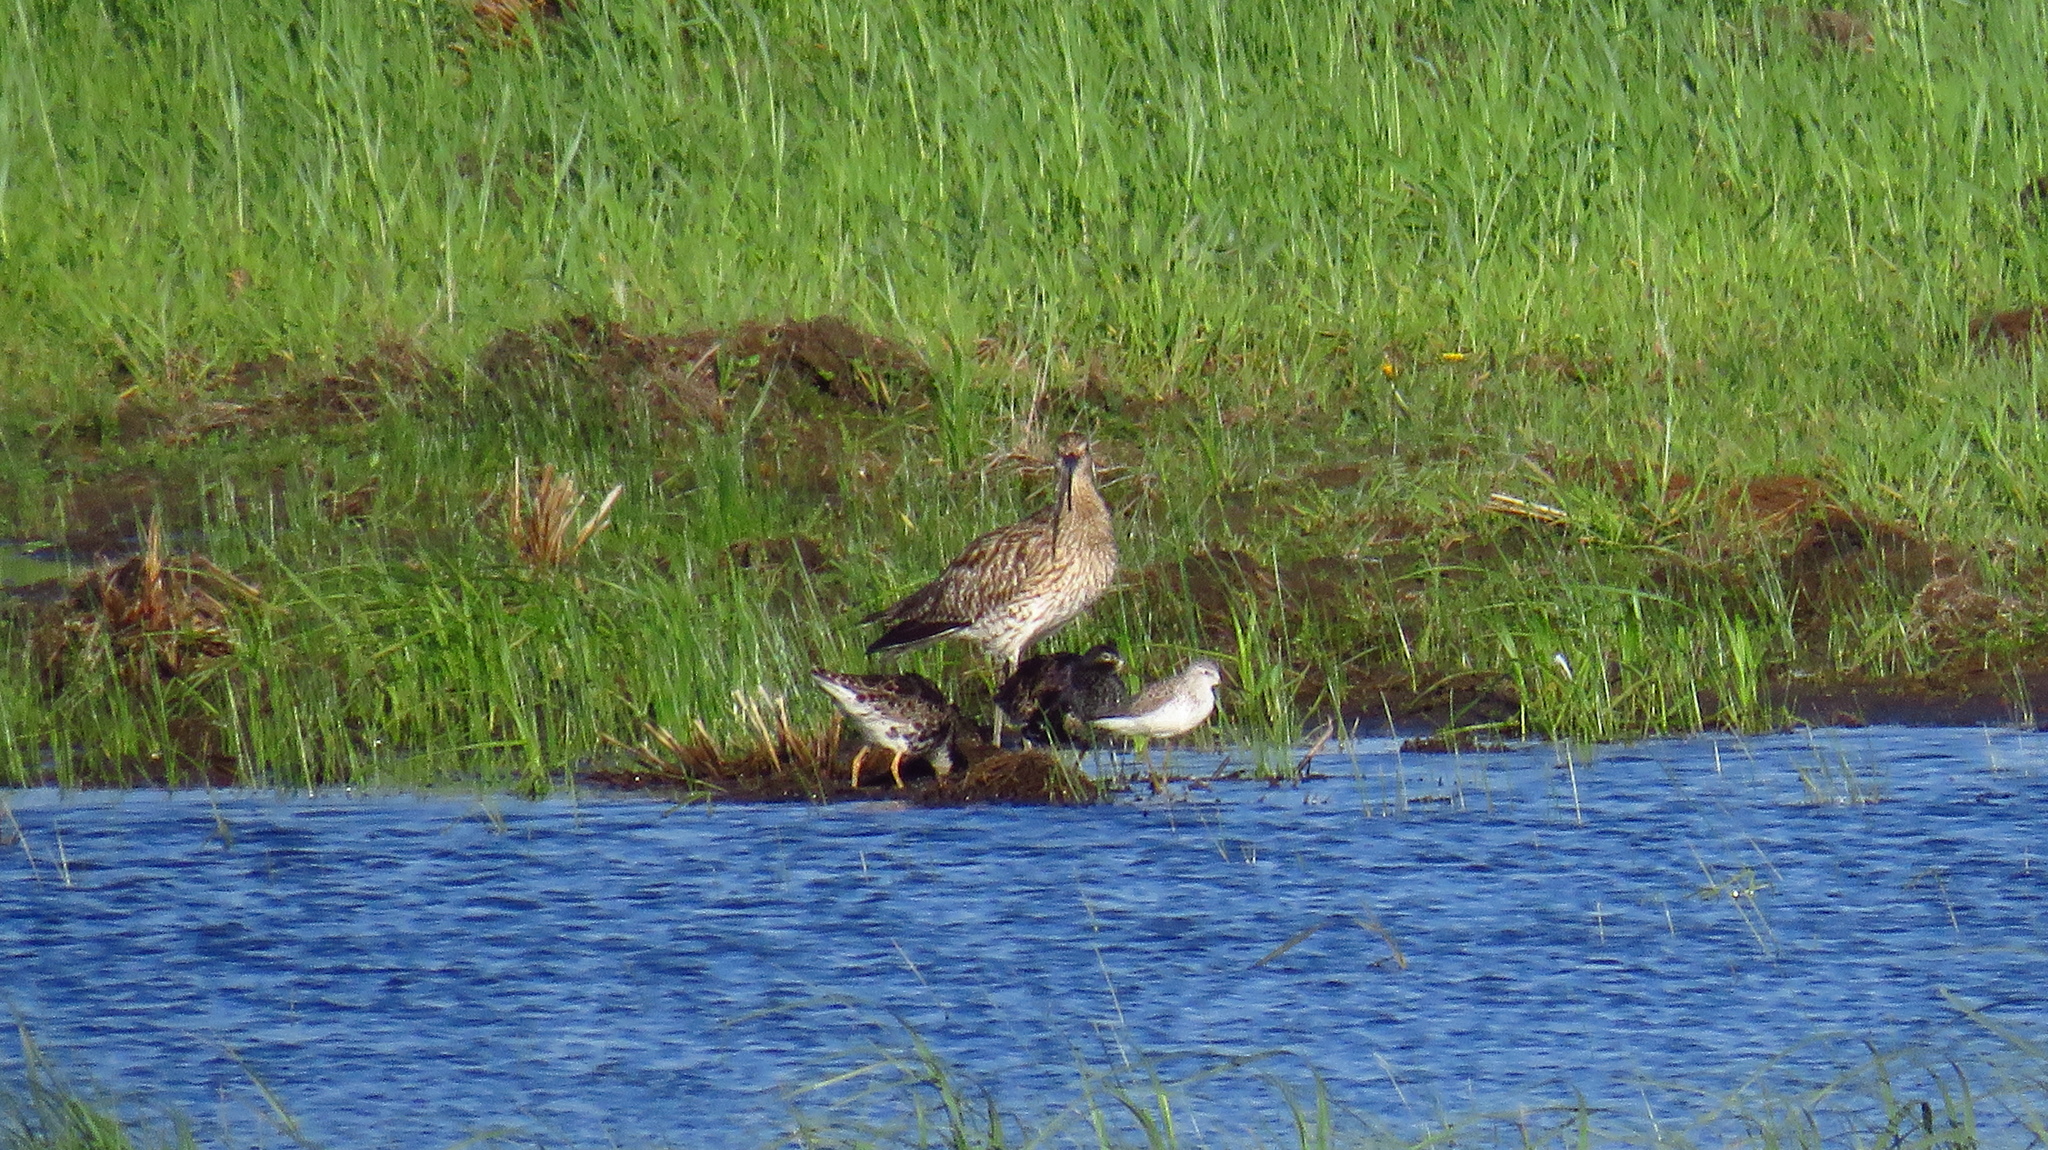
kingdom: Animalia
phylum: Chordata
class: Aves
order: Charadriiformes
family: Scolopacidae
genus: Tringa
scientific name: Tringa stagnatilis
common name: Marsh sandpiper
